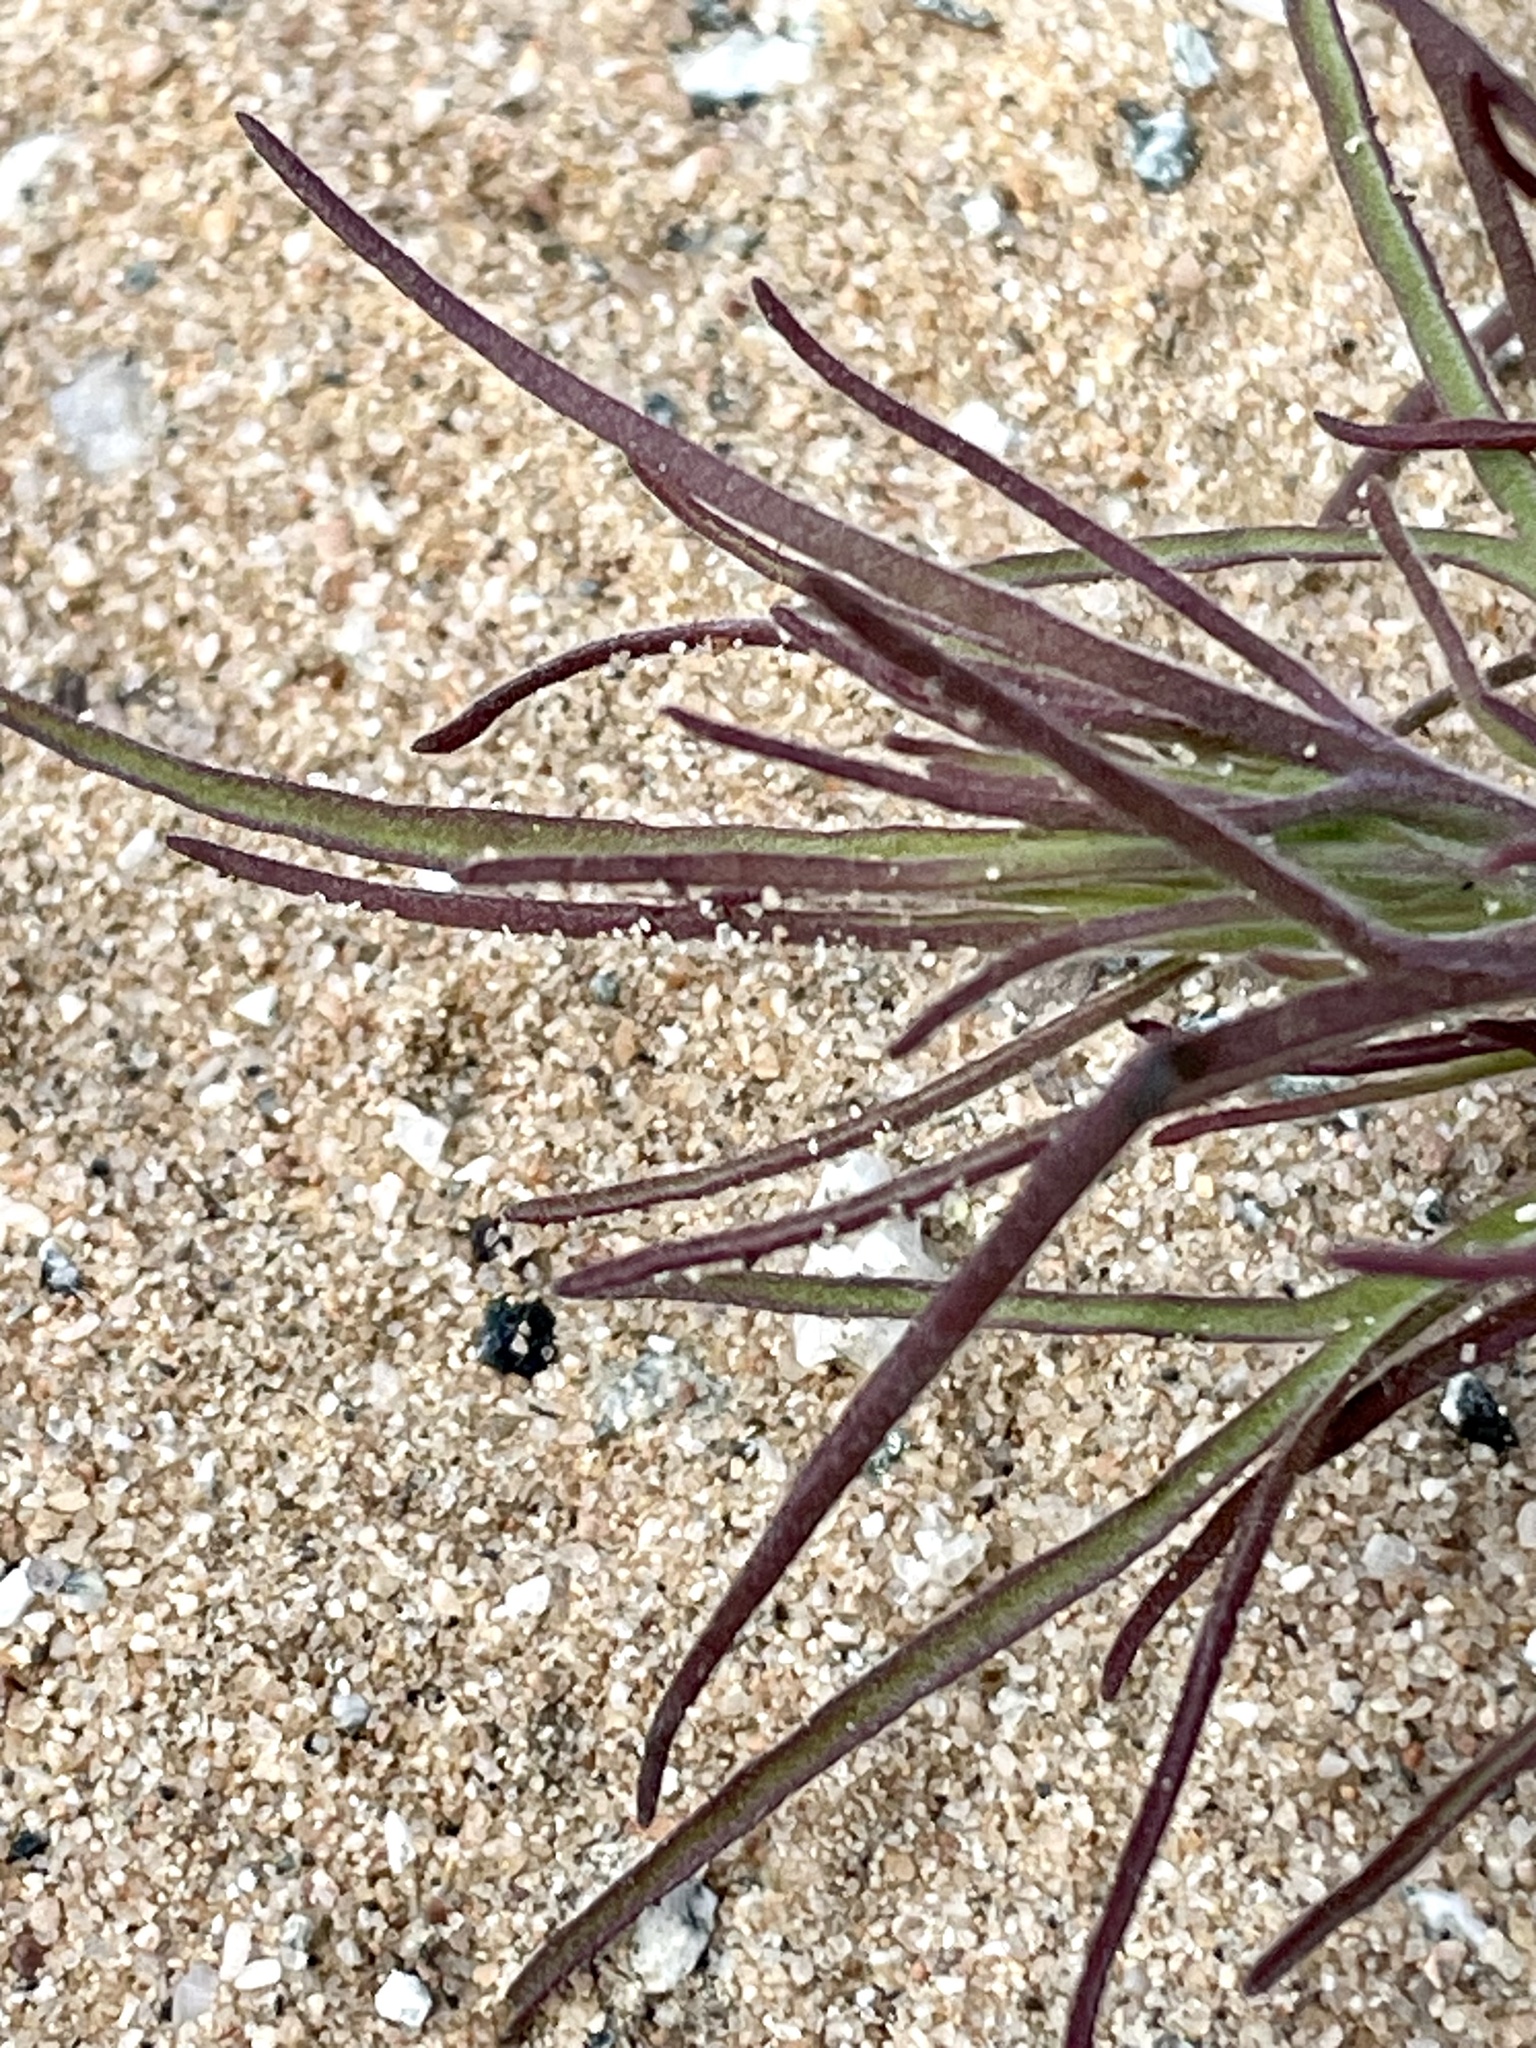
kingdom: Plantae
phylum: Tracheophyta
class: Magnoliopsida
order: Lamiales
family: Orobanchaceae
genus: Cordylanthus
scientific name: Cordylanthus rigidus
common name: Stiff-branch bird's-beak
